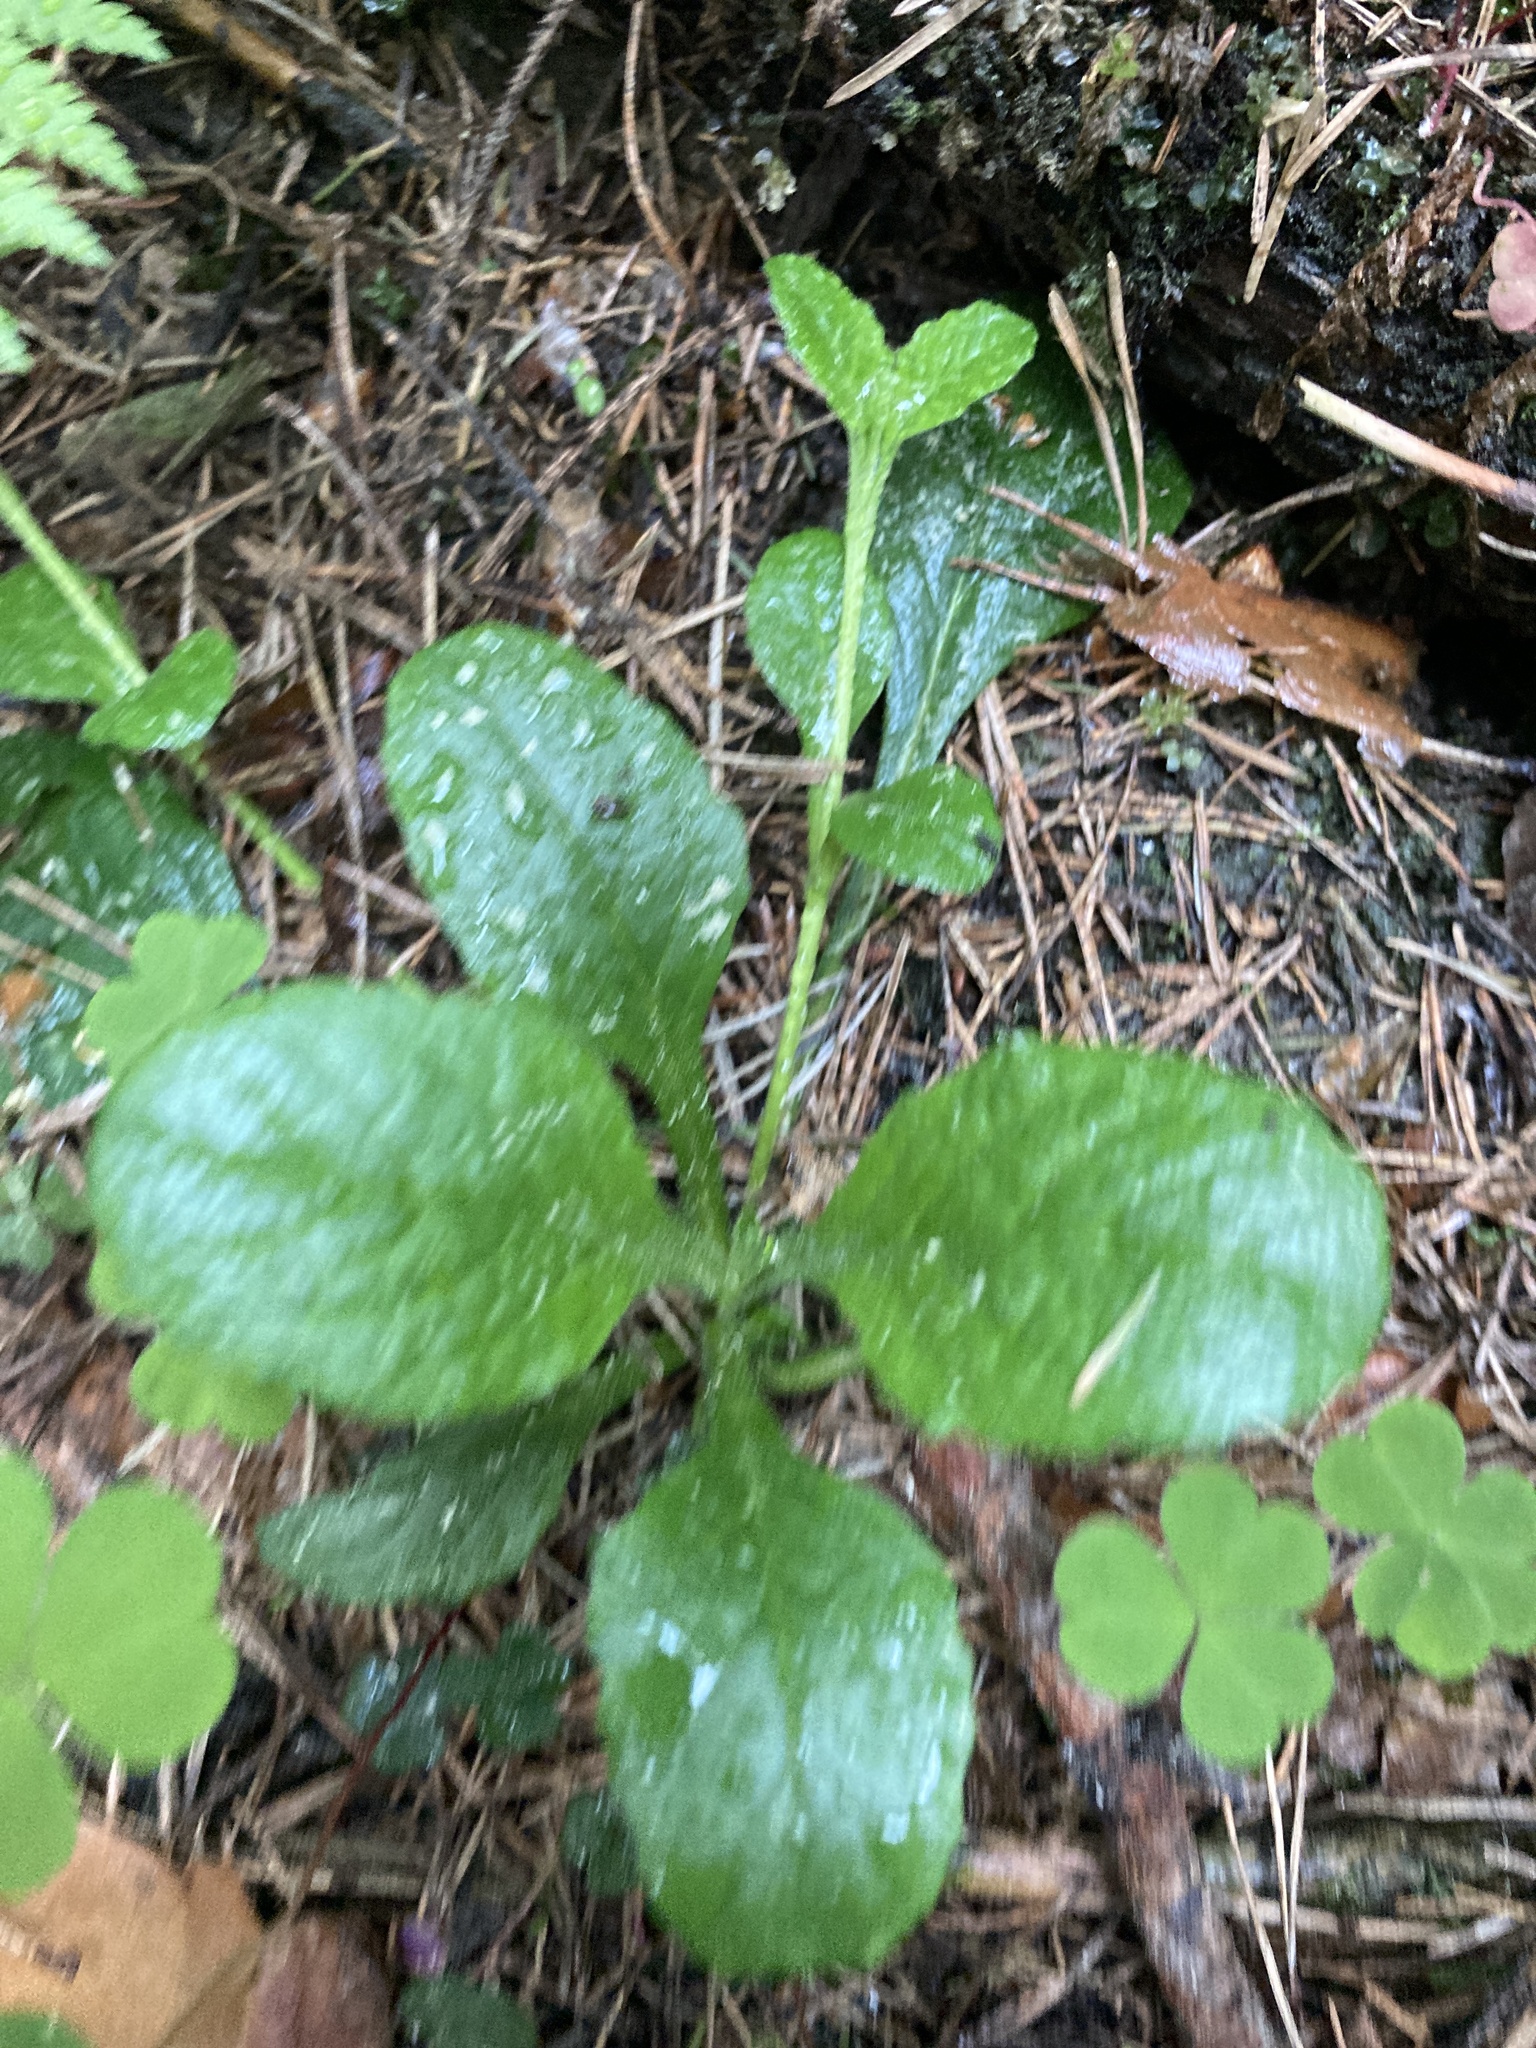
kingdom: Plantae
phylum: Tracheophyta
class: Magnoliopsida
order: Lamiales
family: Lamiaceae
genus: Ajuga
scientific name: Ajuga reptans
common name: Bugle
